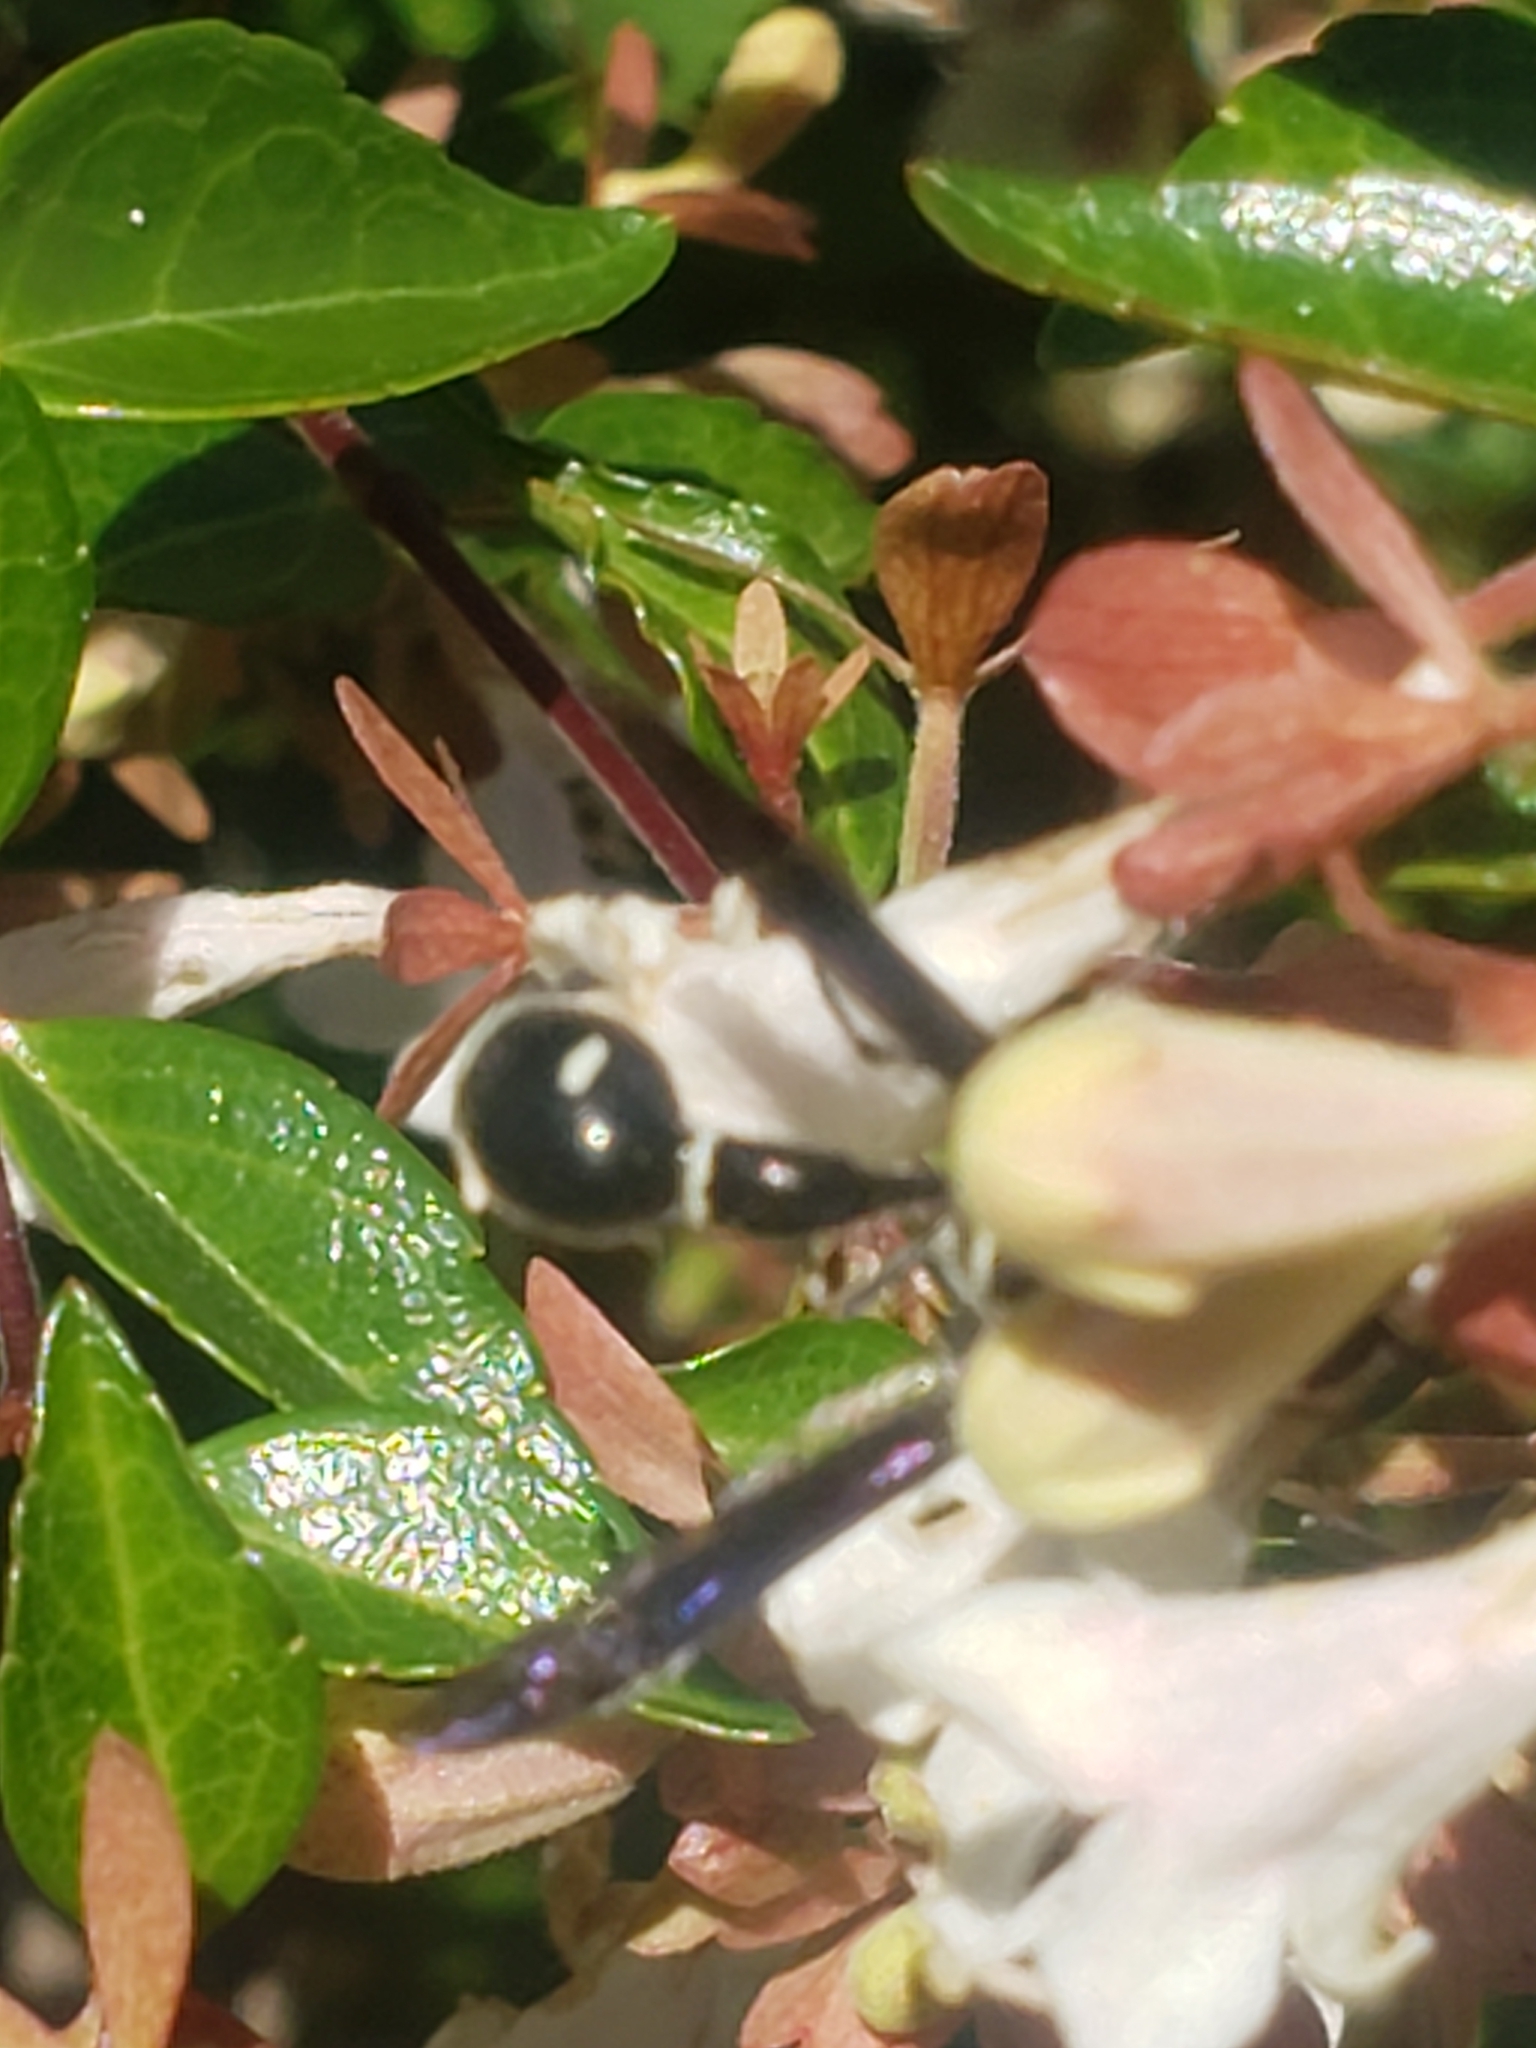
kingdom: Animalia
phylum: Arthropoda
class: Insecta
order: Hymenoptera
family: Vespidae
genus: Eumenes
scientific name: Eumenes fraternus
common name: Fraternal potter wasp
